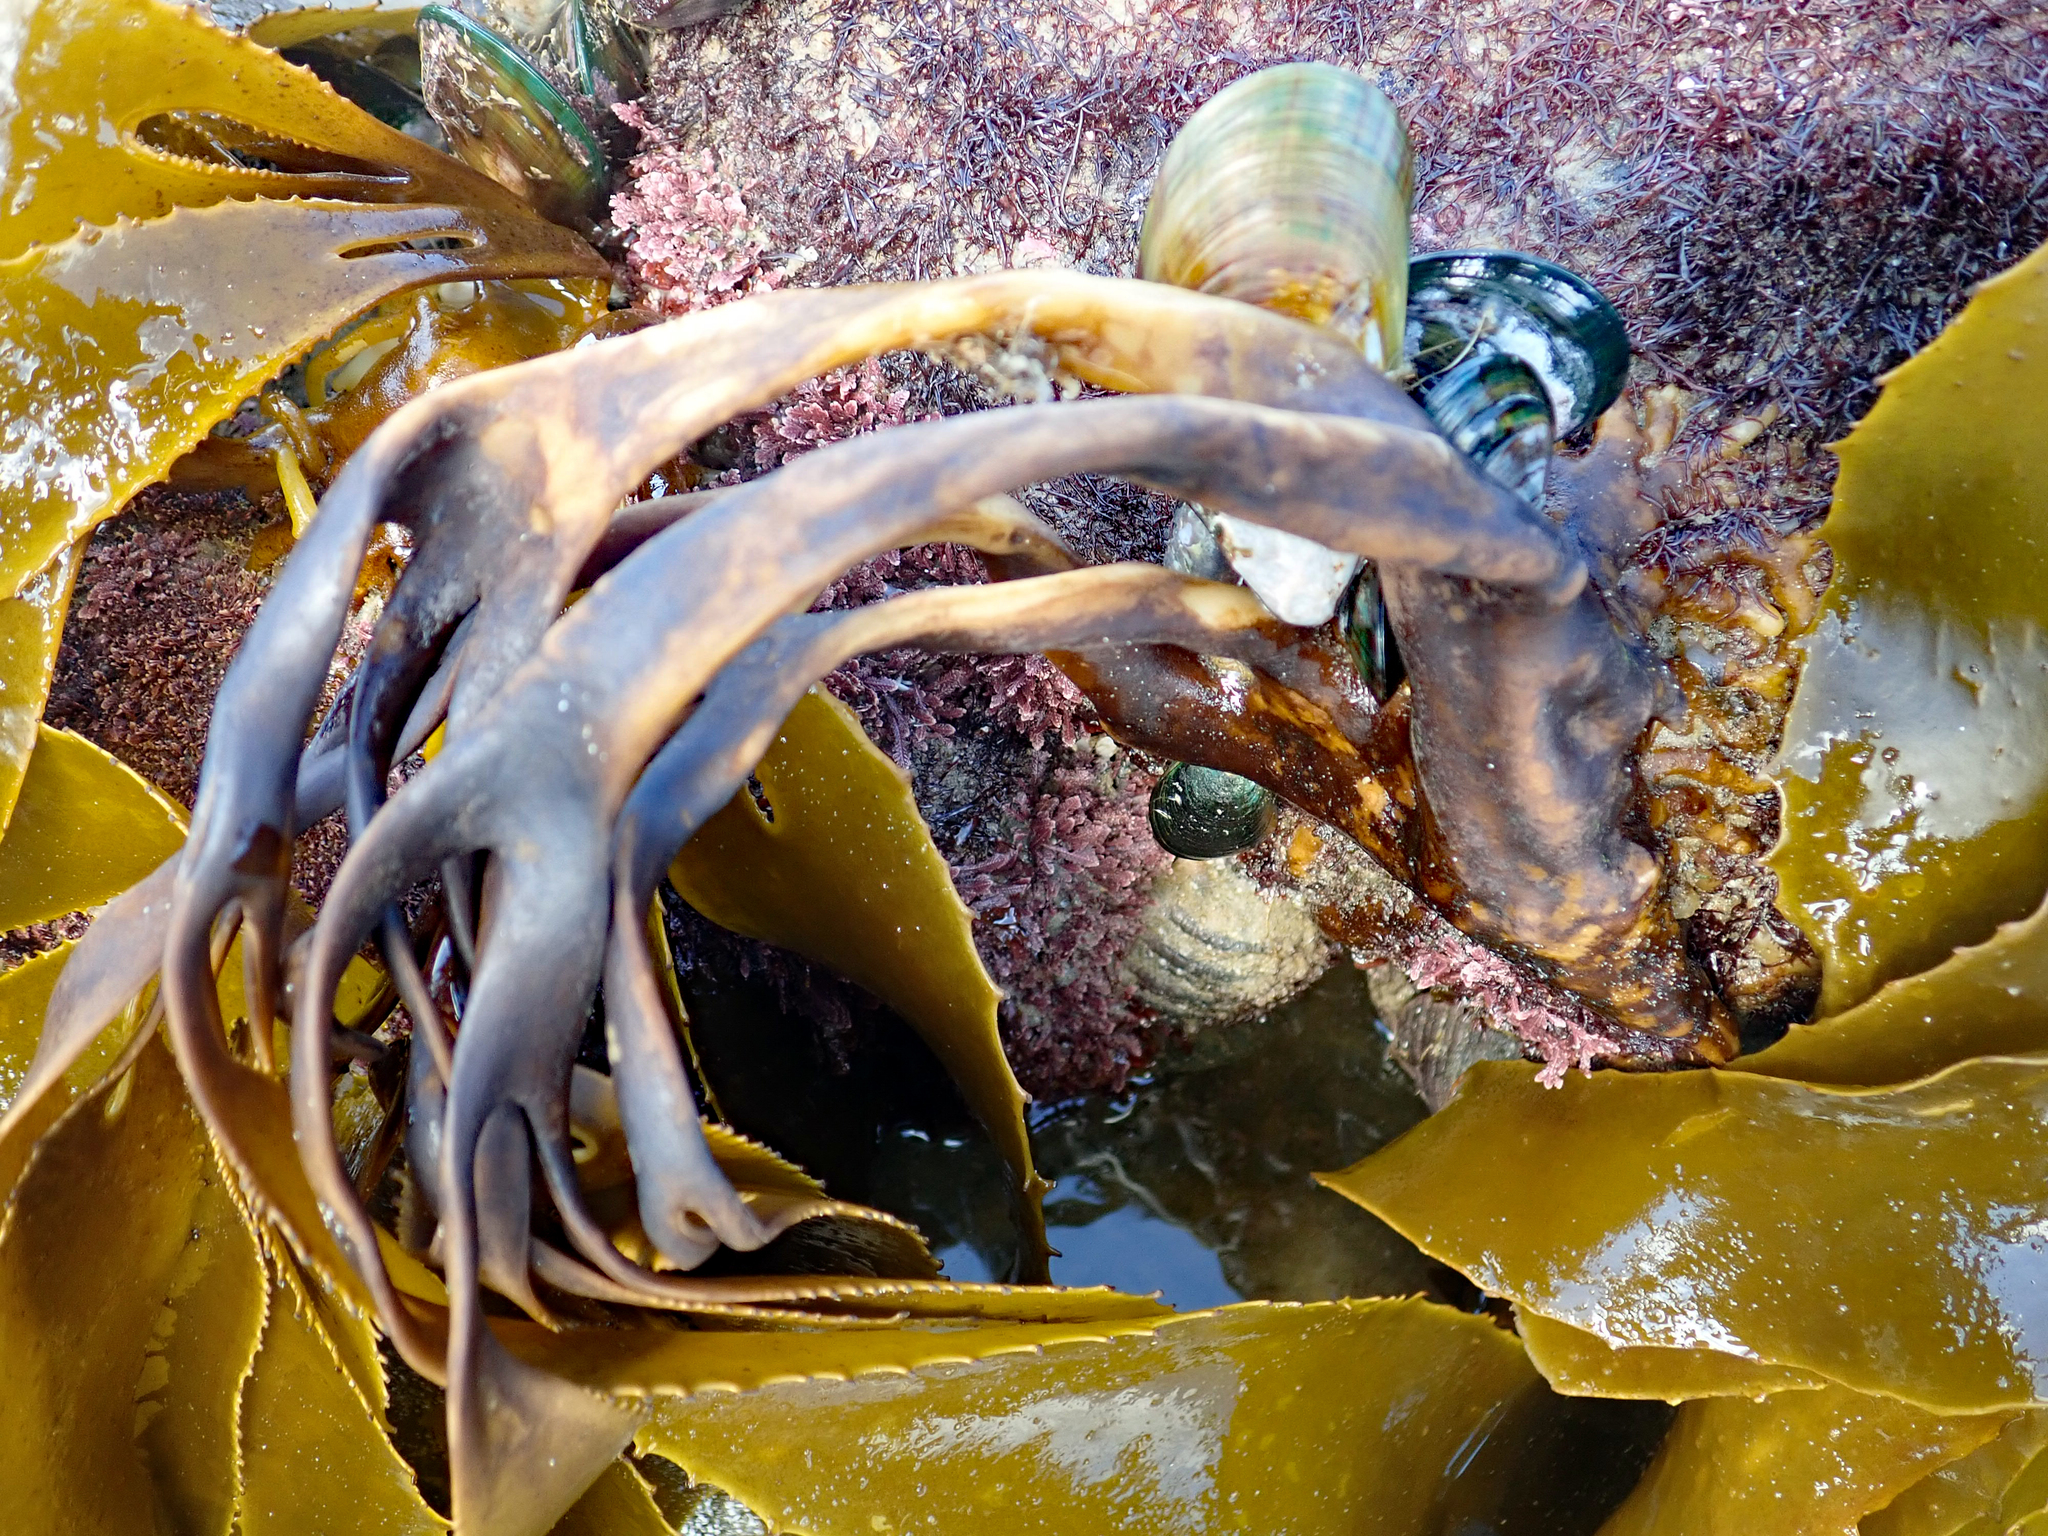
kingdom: Chromista
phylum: Ochrophyta
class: Phaeophyceae
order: Laminariales
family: Lessoniaceae
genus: Lessonia
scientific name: Lessonia
